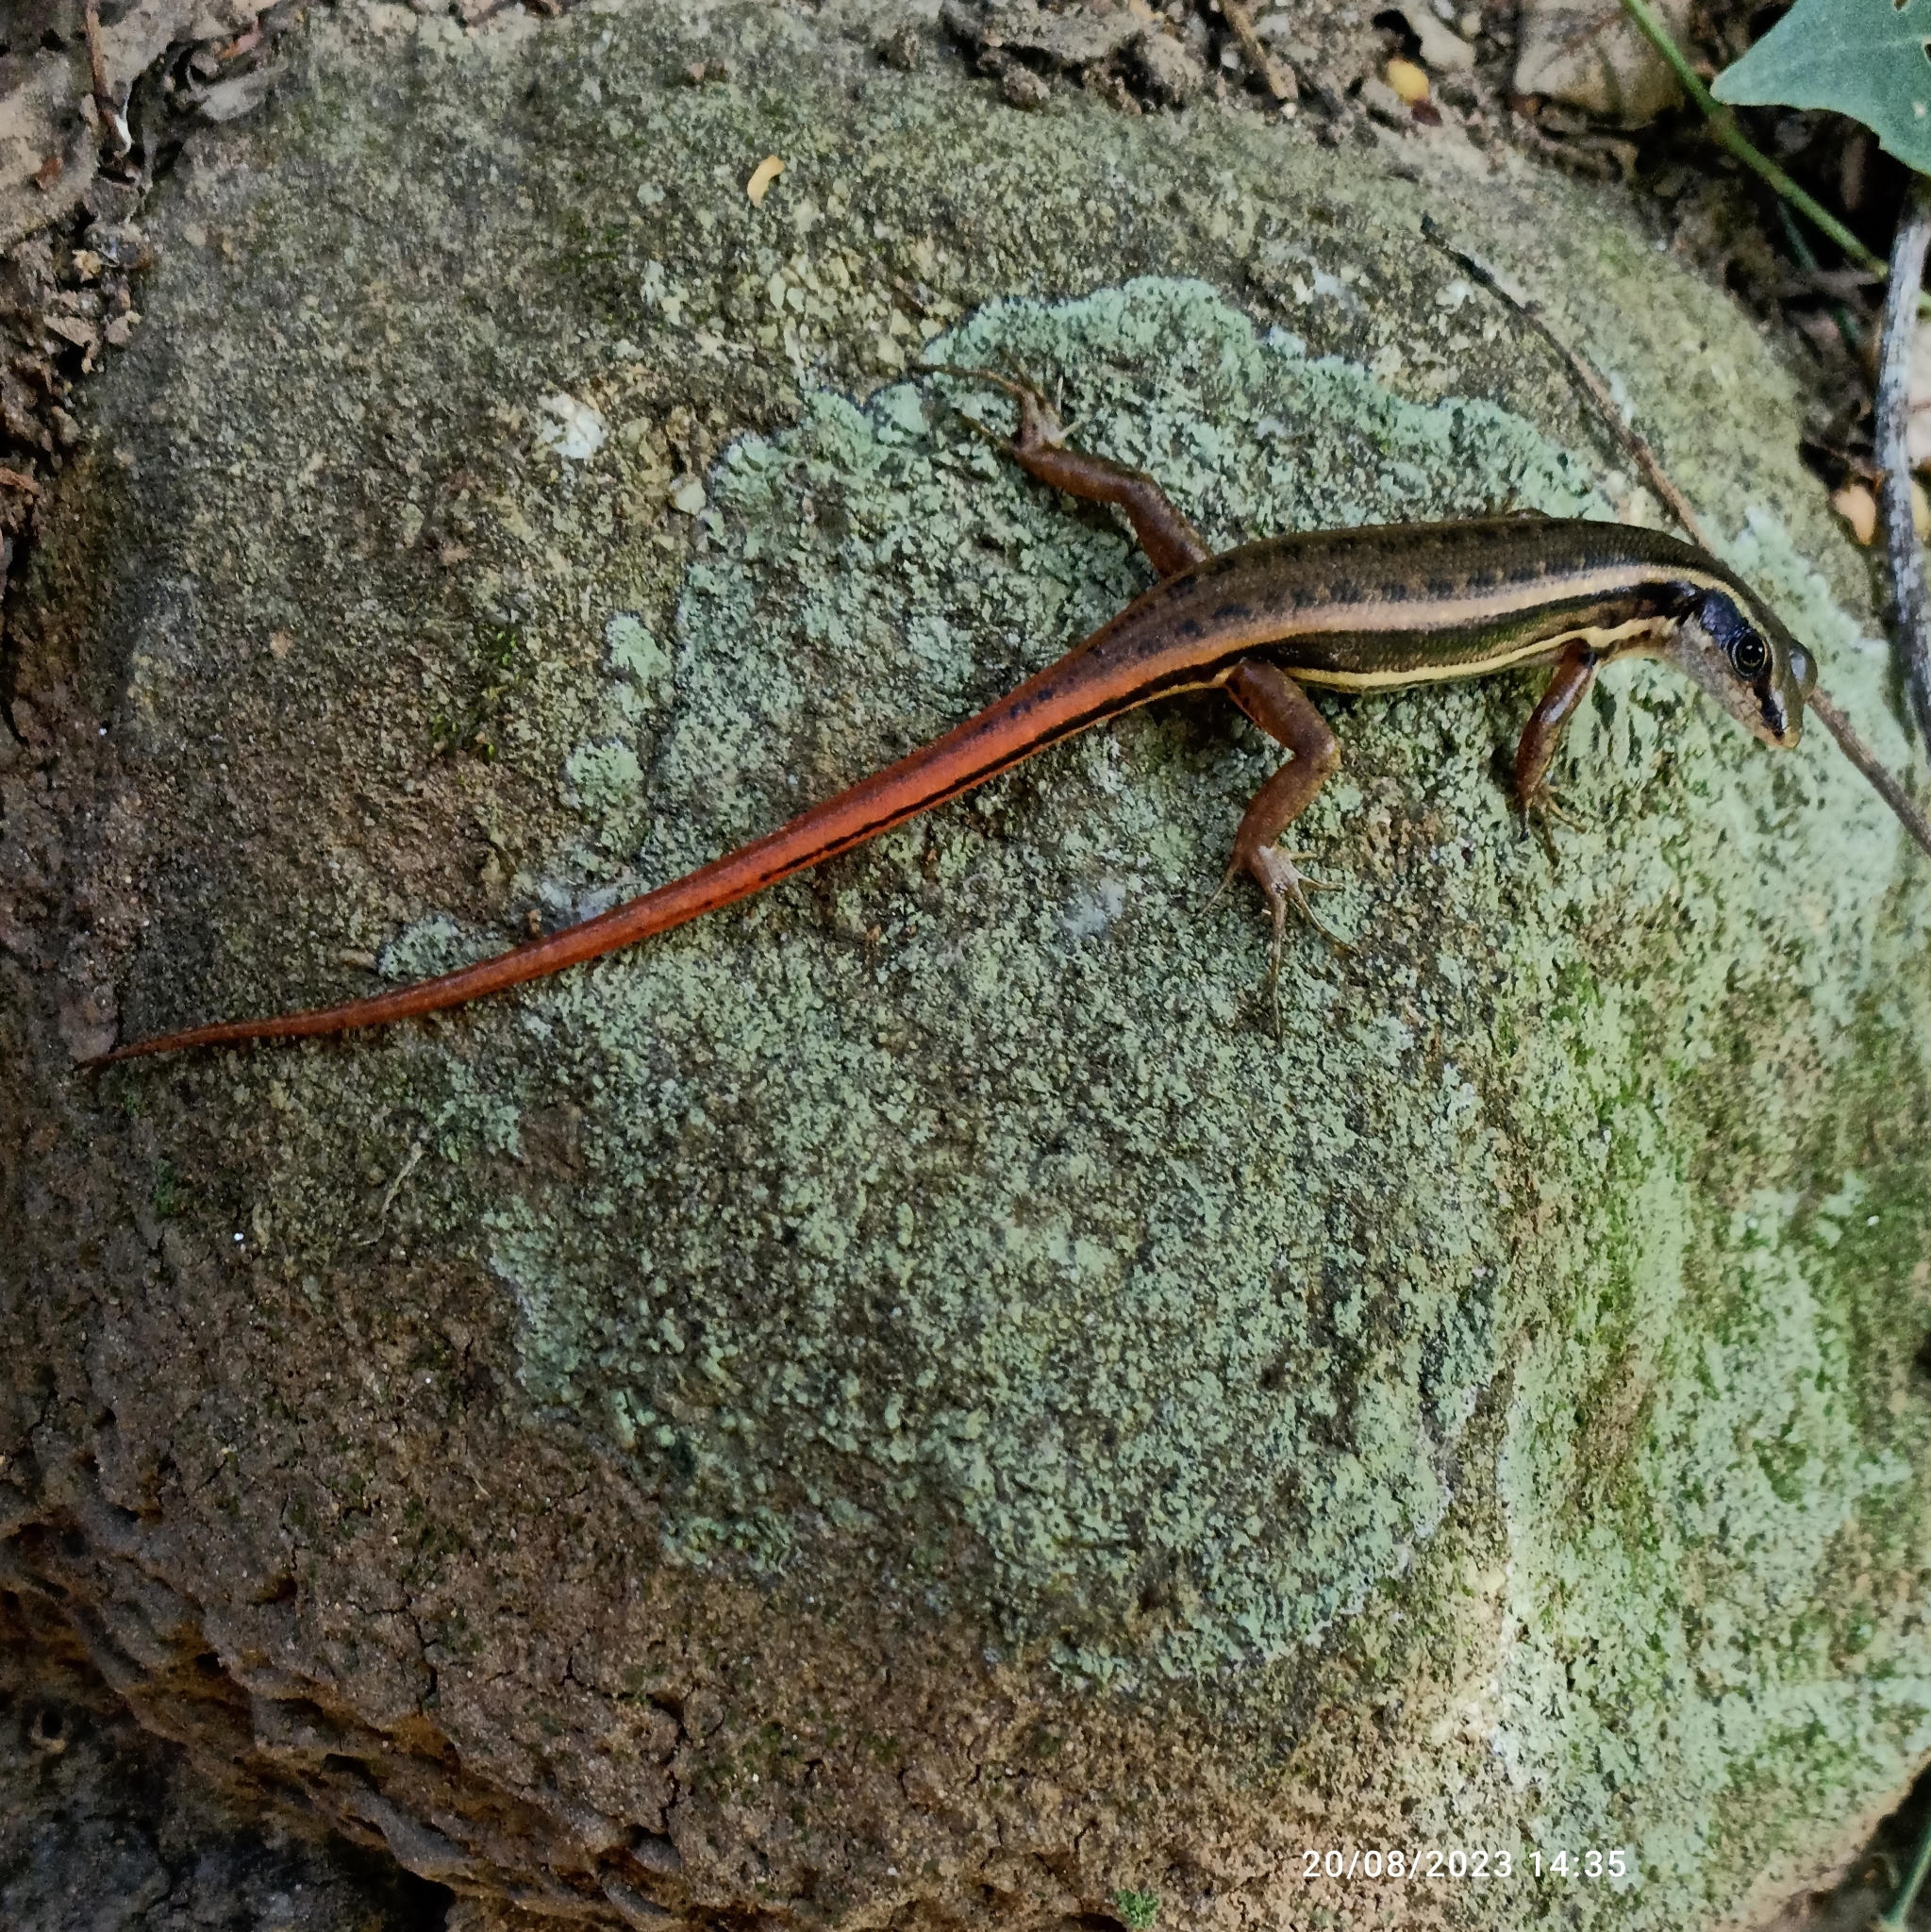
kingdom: Animalia
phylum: Chordata
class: Squamata
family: Scincidae
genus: Sphenomorphus
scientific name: Sphenomorphus dussumieri
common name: Dussumier's forest skink
